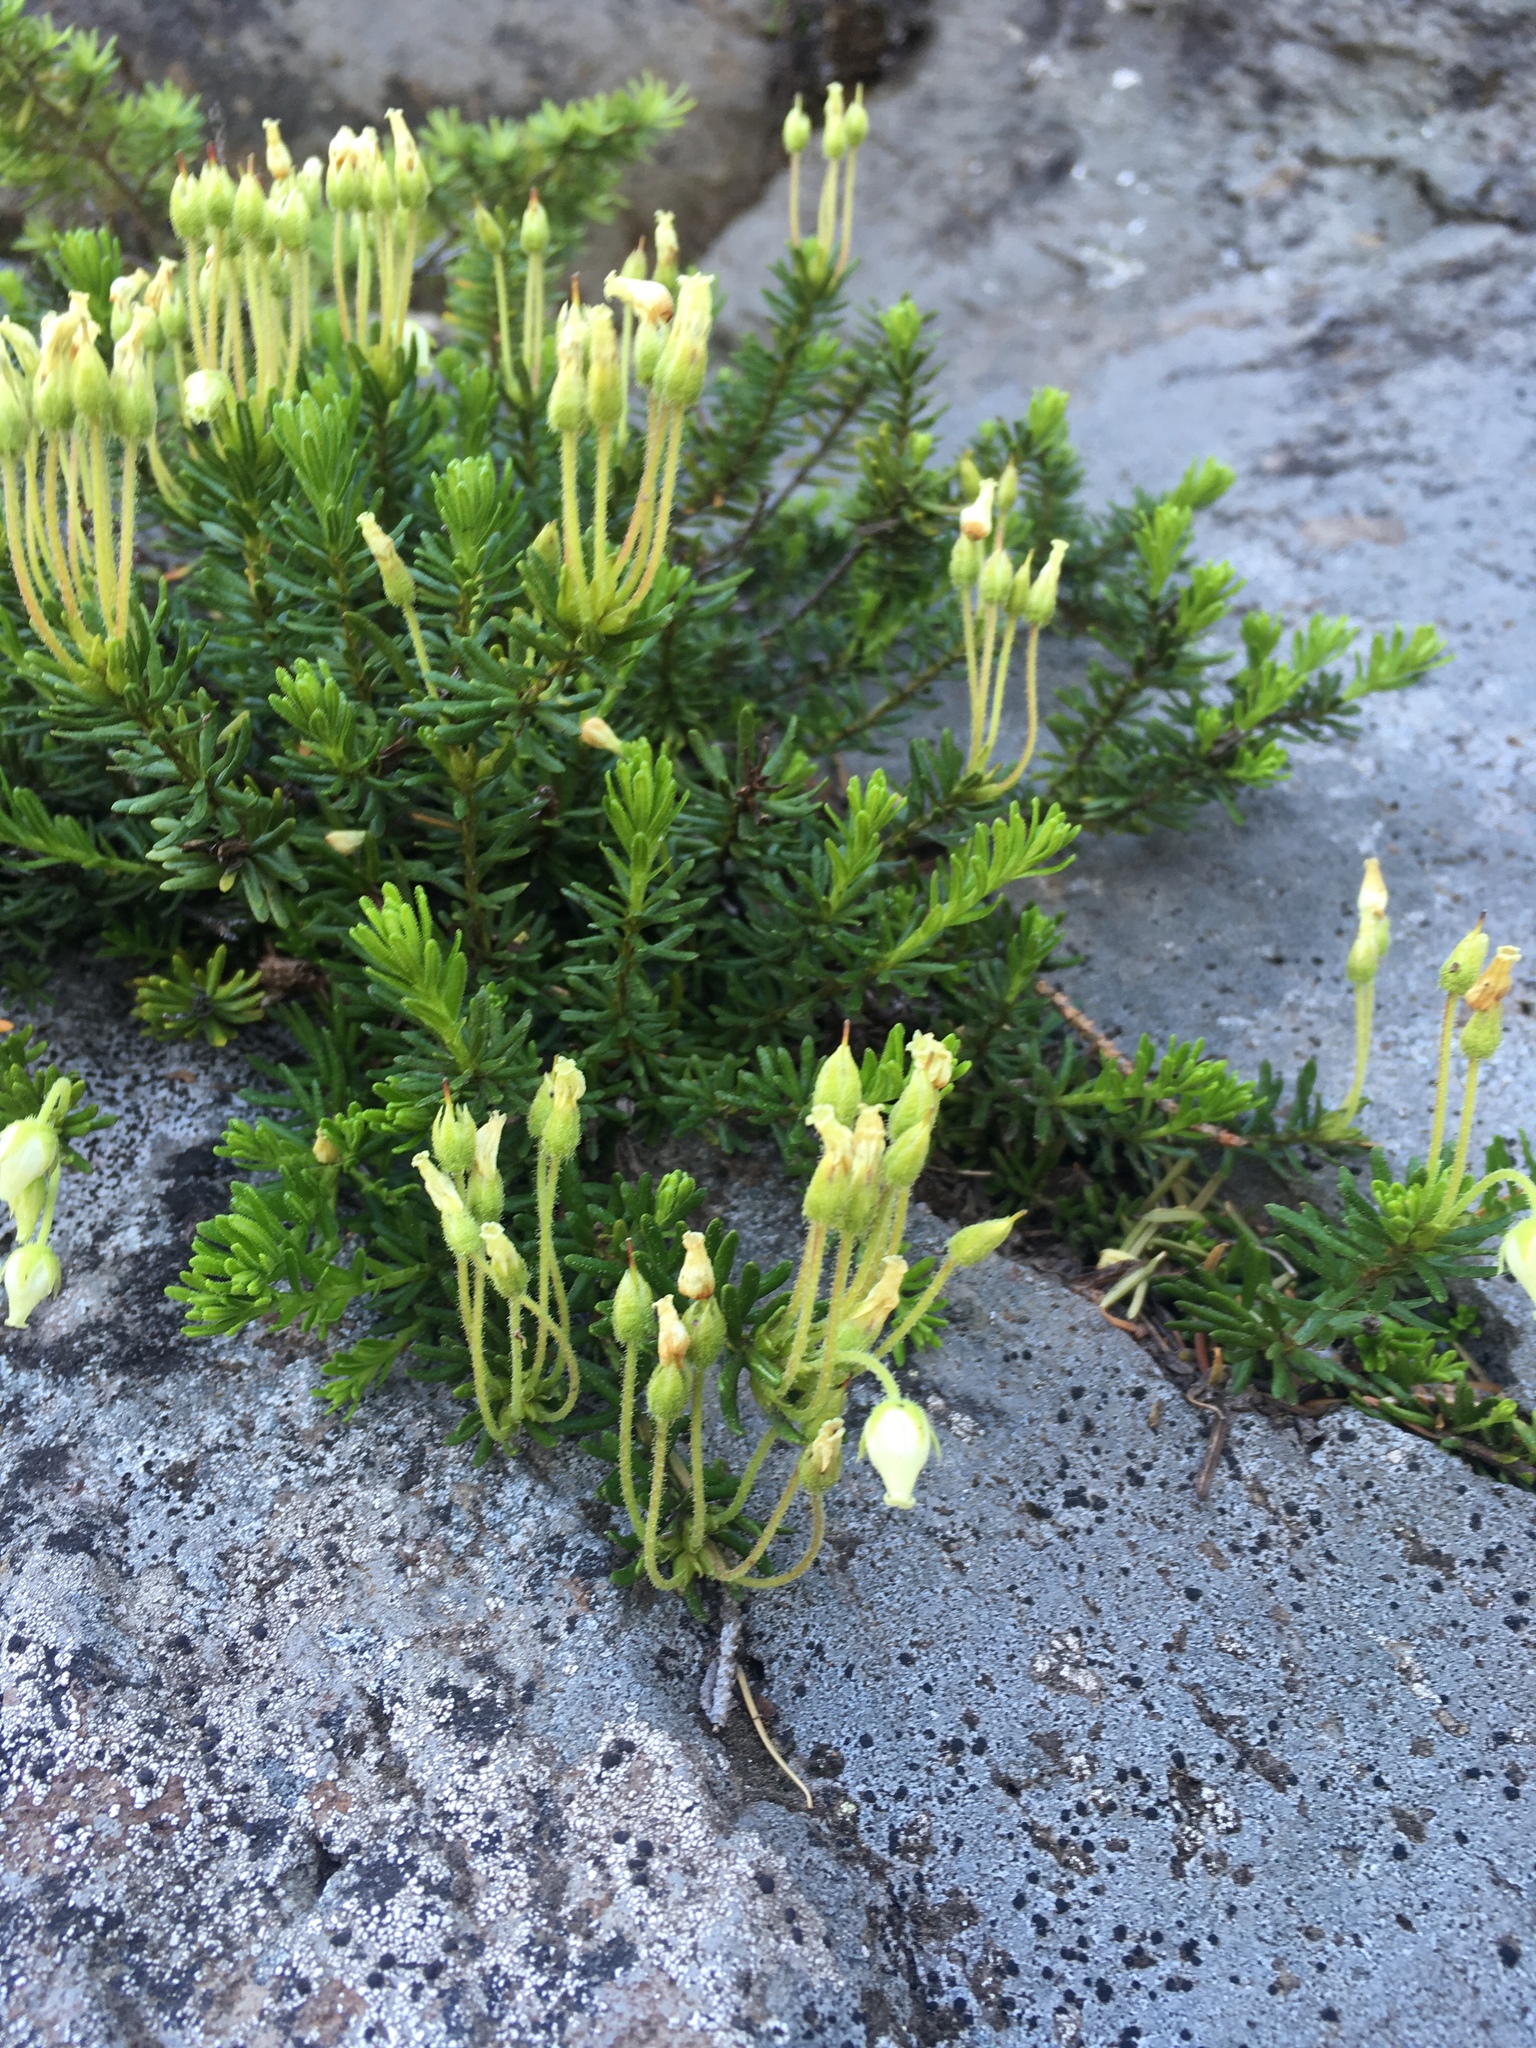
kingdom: Plantae
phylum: Tracheophyta
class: Magnoliopsida
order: Ericales
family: Ericaceae
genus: Phyllodoce
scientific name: Phyllodoce glanduliflora
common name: Cream mountain heather
